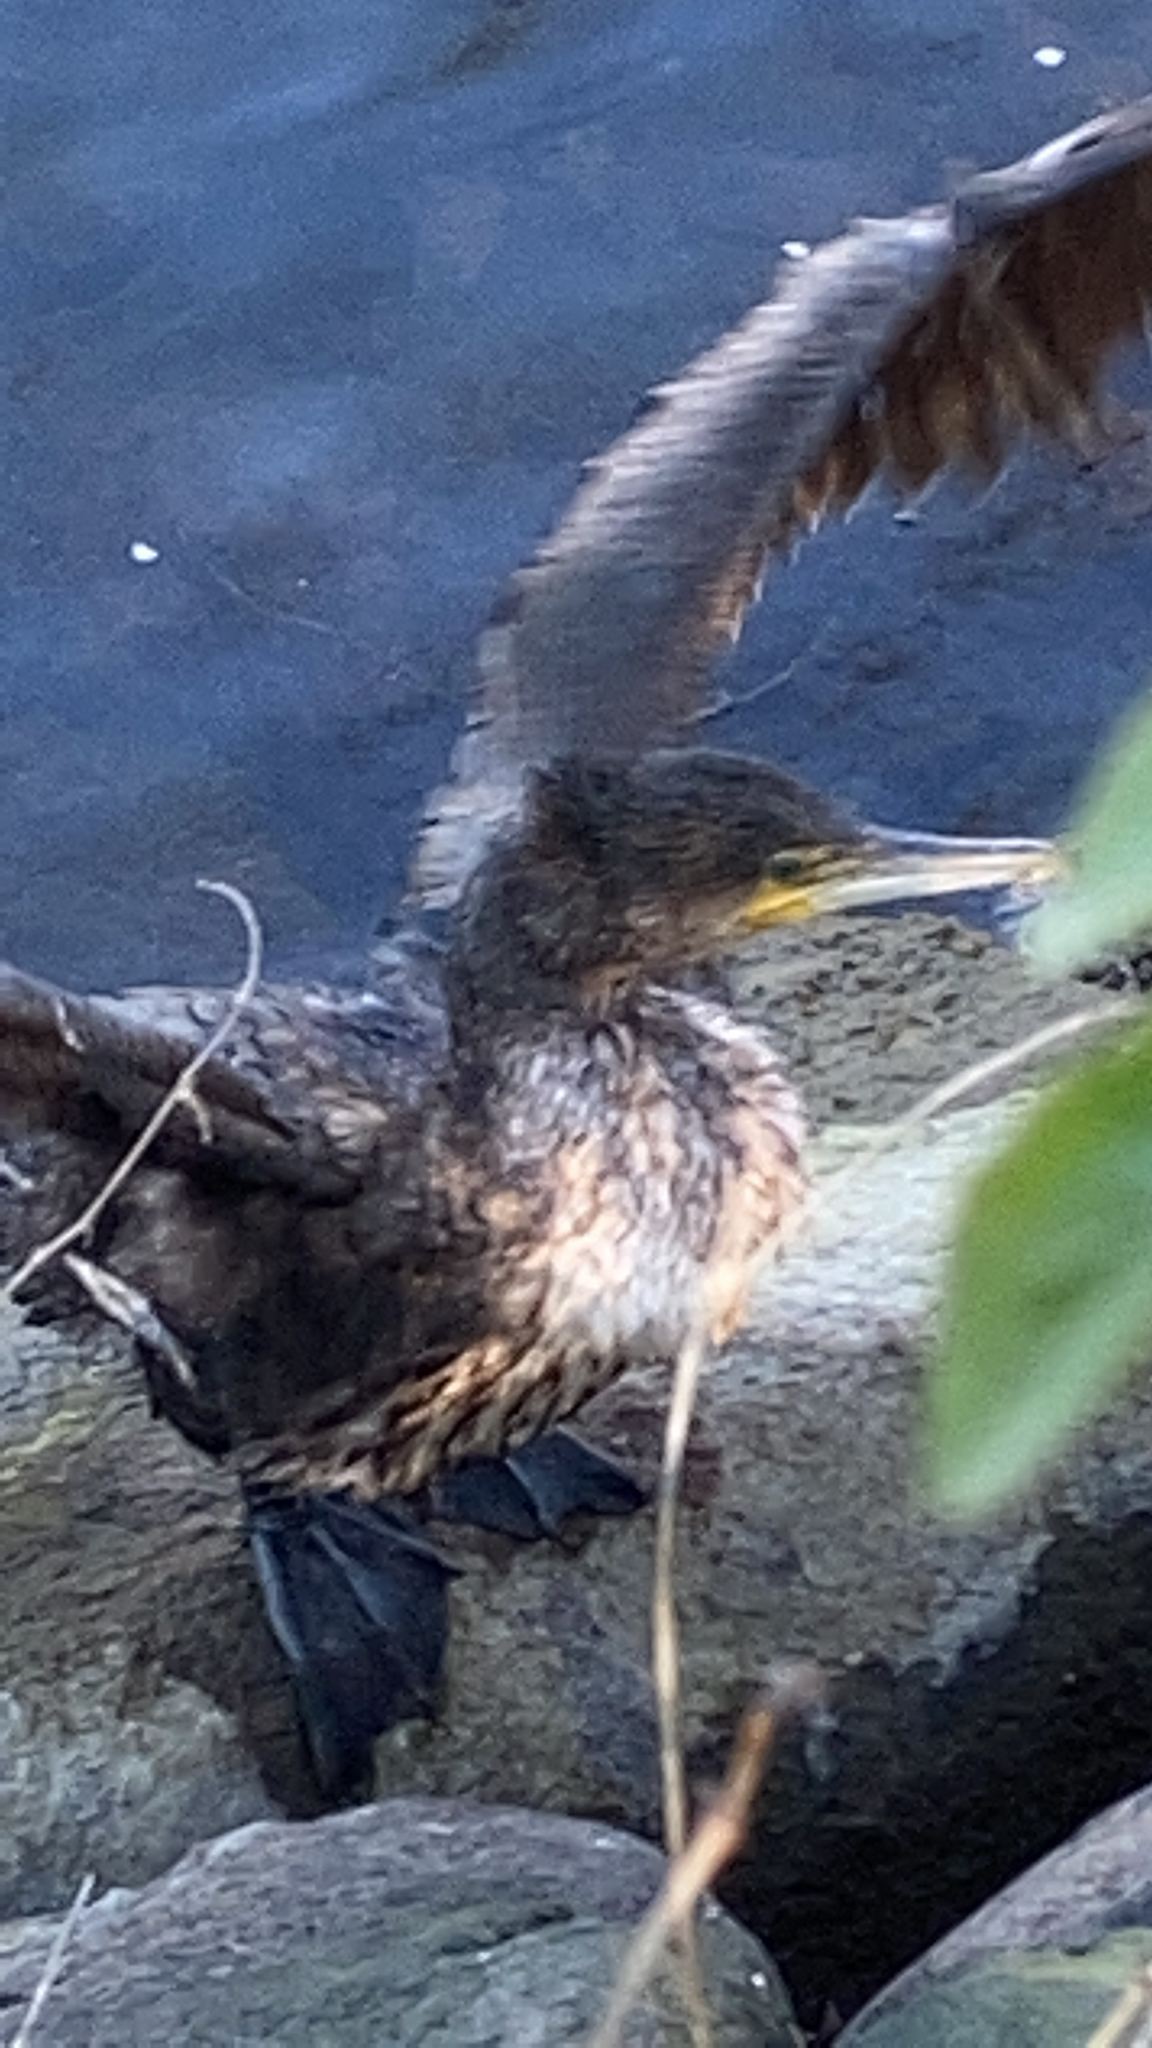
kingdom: Animalia
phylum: Chordata
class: Aves
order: Suliformes
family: Phalacrocoracidae
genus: Phalacrocorax
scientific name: Phalacrocorax carbo
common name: Great cormorant
